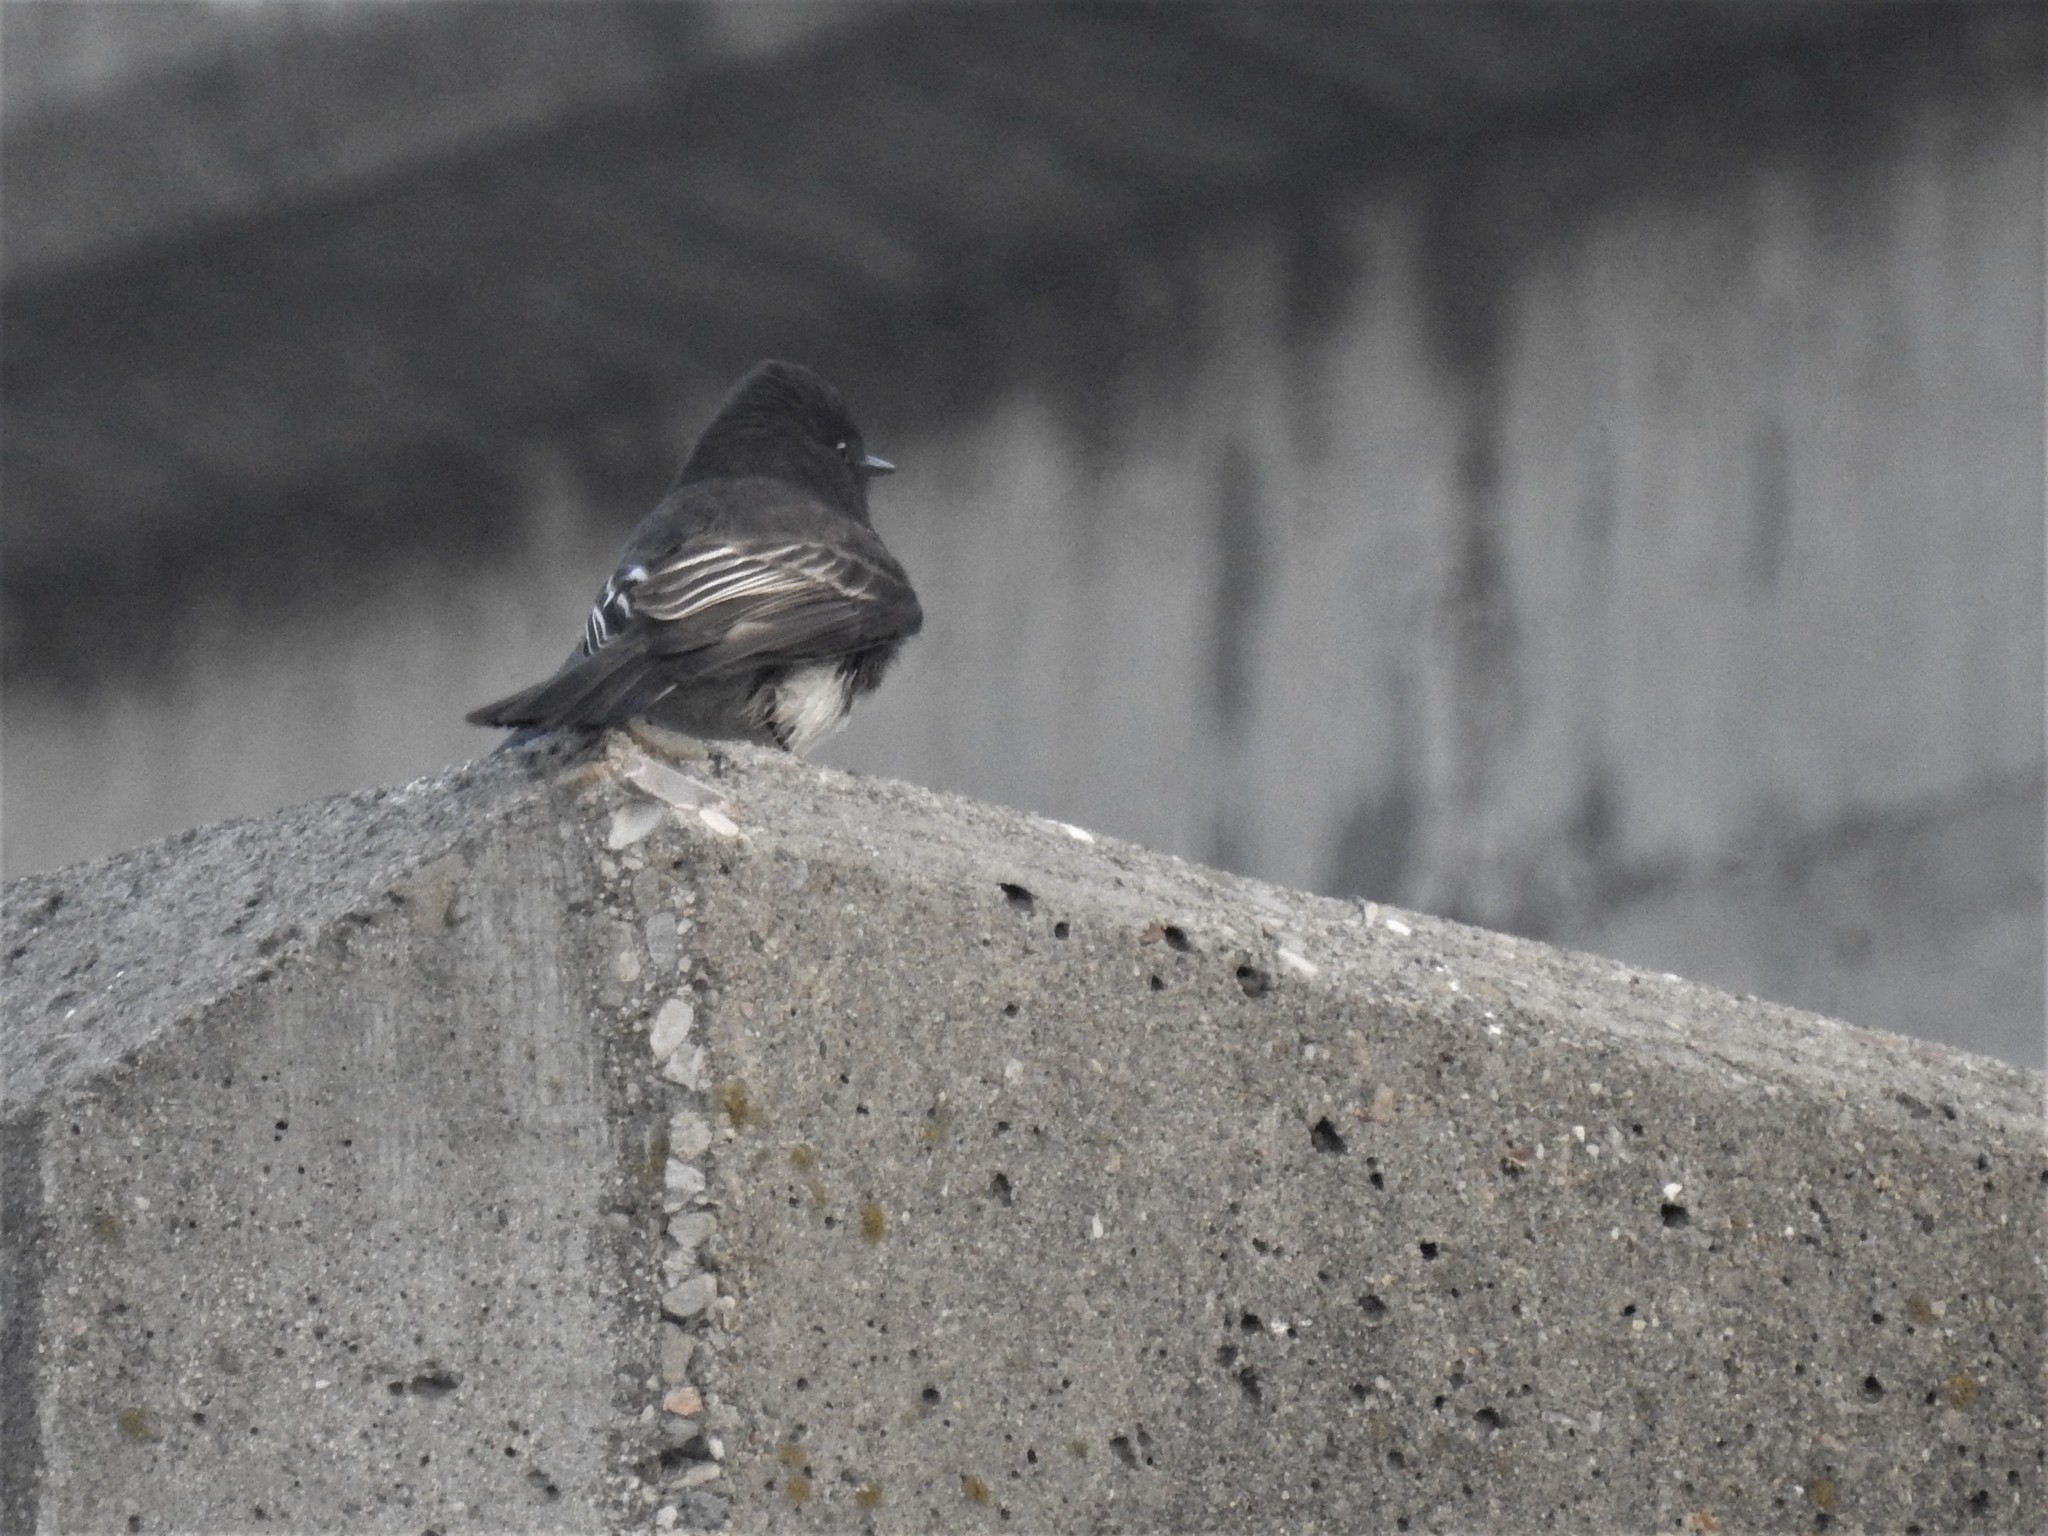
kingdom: Animalia
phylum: Chordata
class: Aves
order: Passeriformes
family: Tyrannidae
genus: Sayornis
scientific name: Sayornis nigricans
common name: Black phoebe
